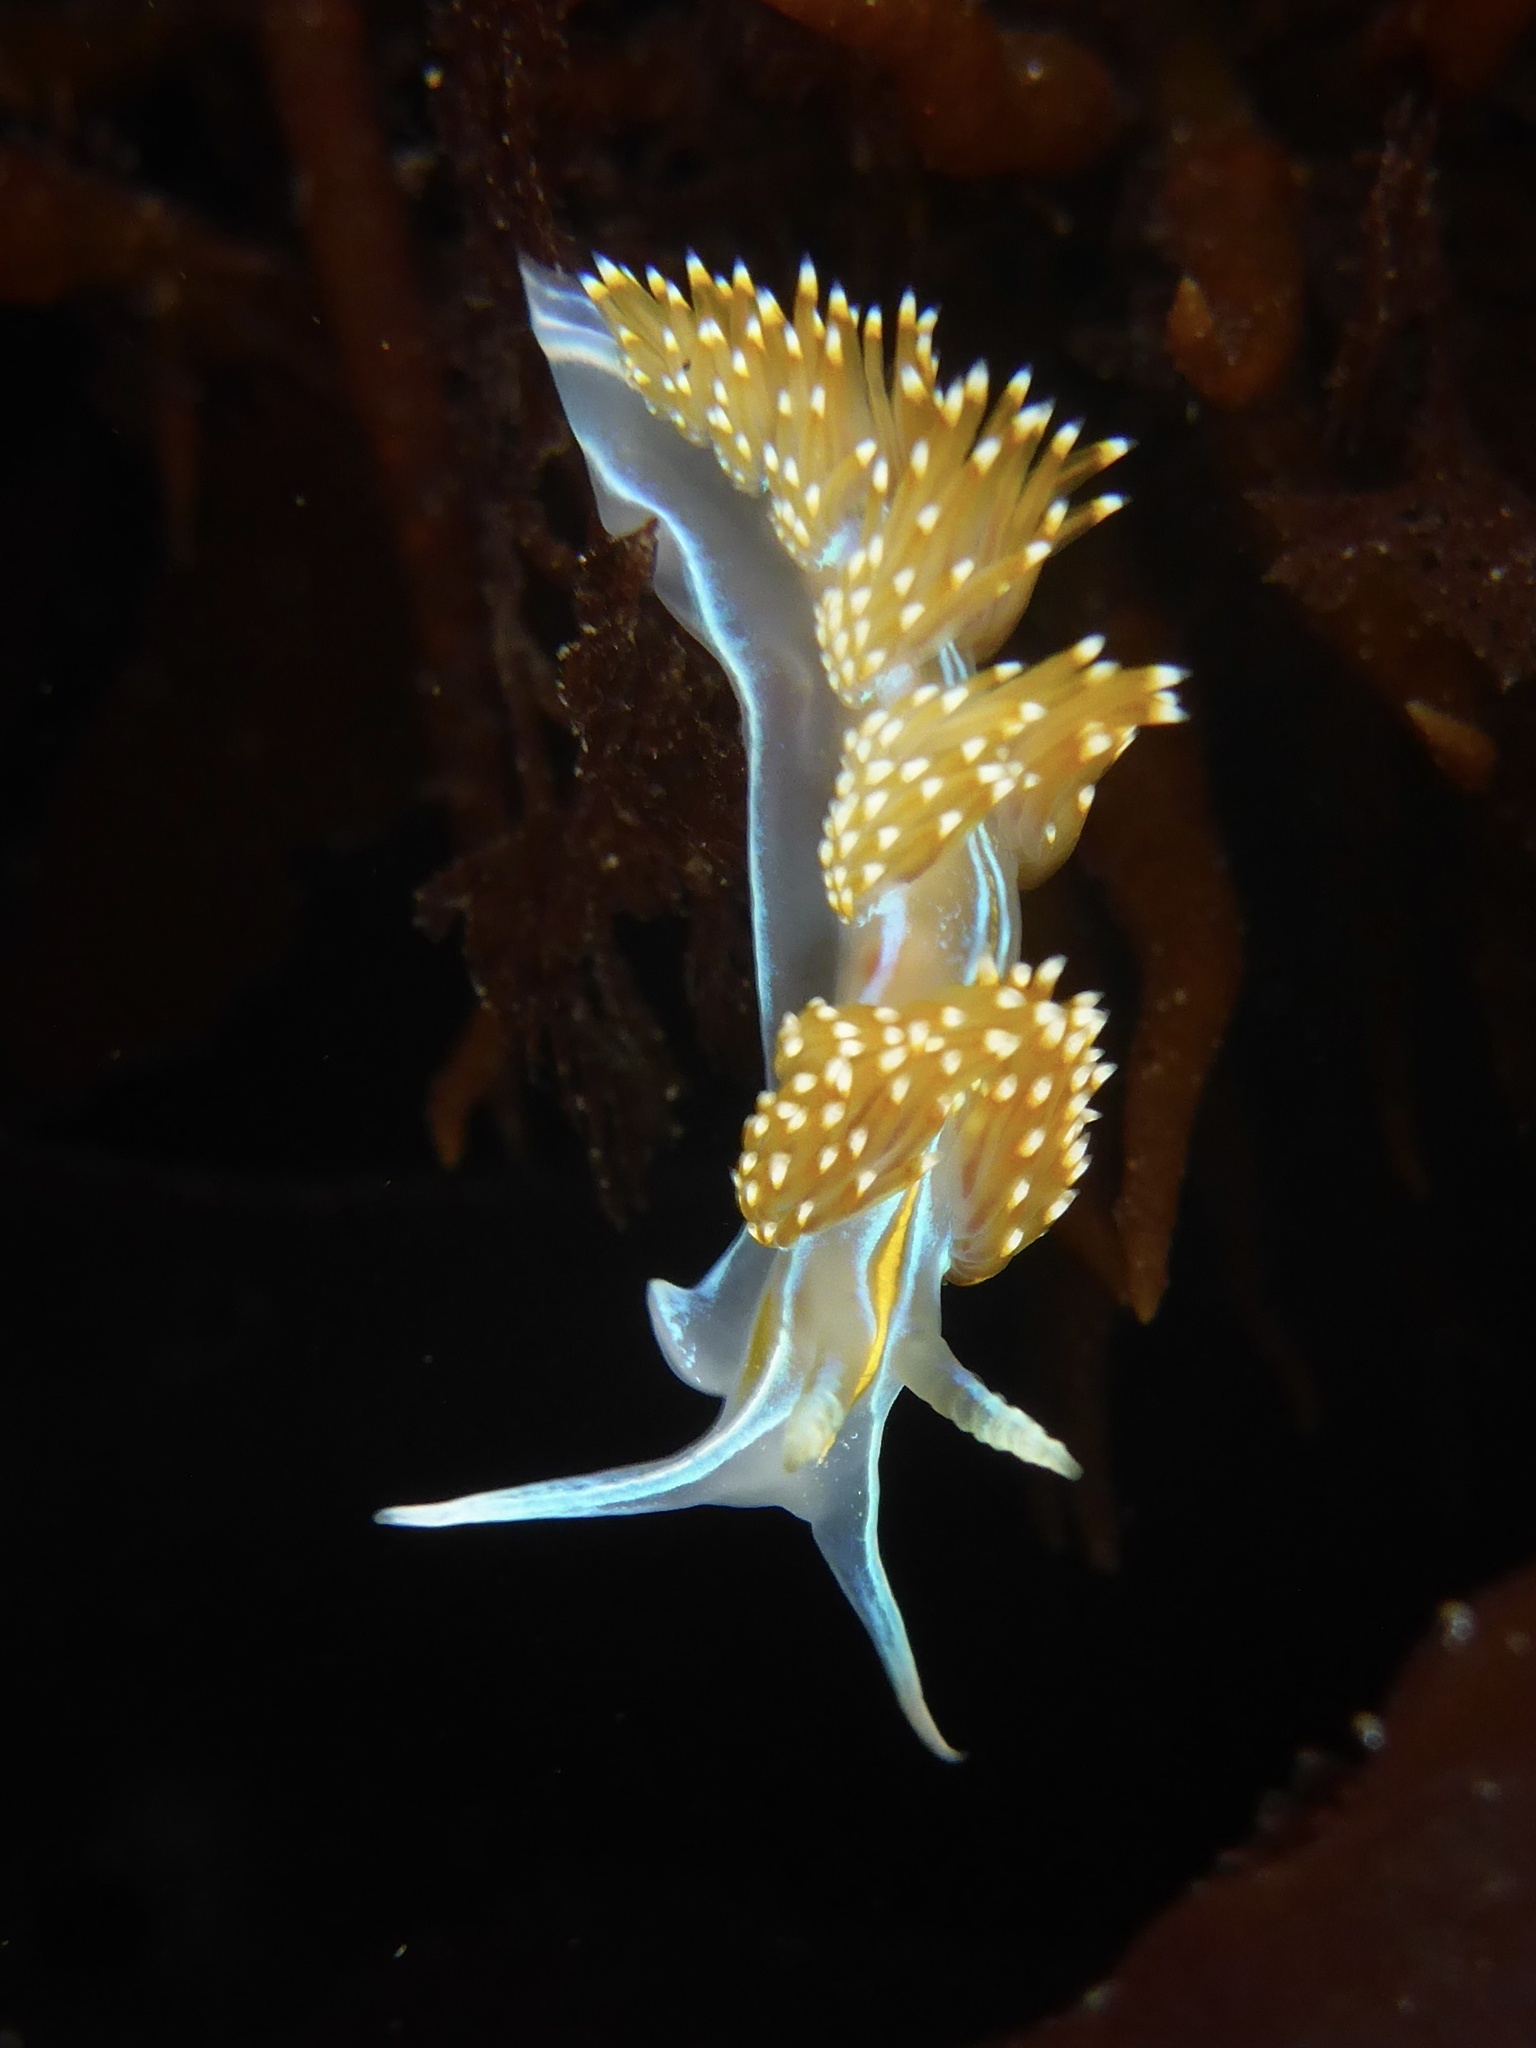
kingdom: Animalia
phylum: Mollusca
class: Gastropoda
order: Nudibranchia
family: Myrrhinidae
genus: Hermissenda
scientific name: Hermissenda opalescens
